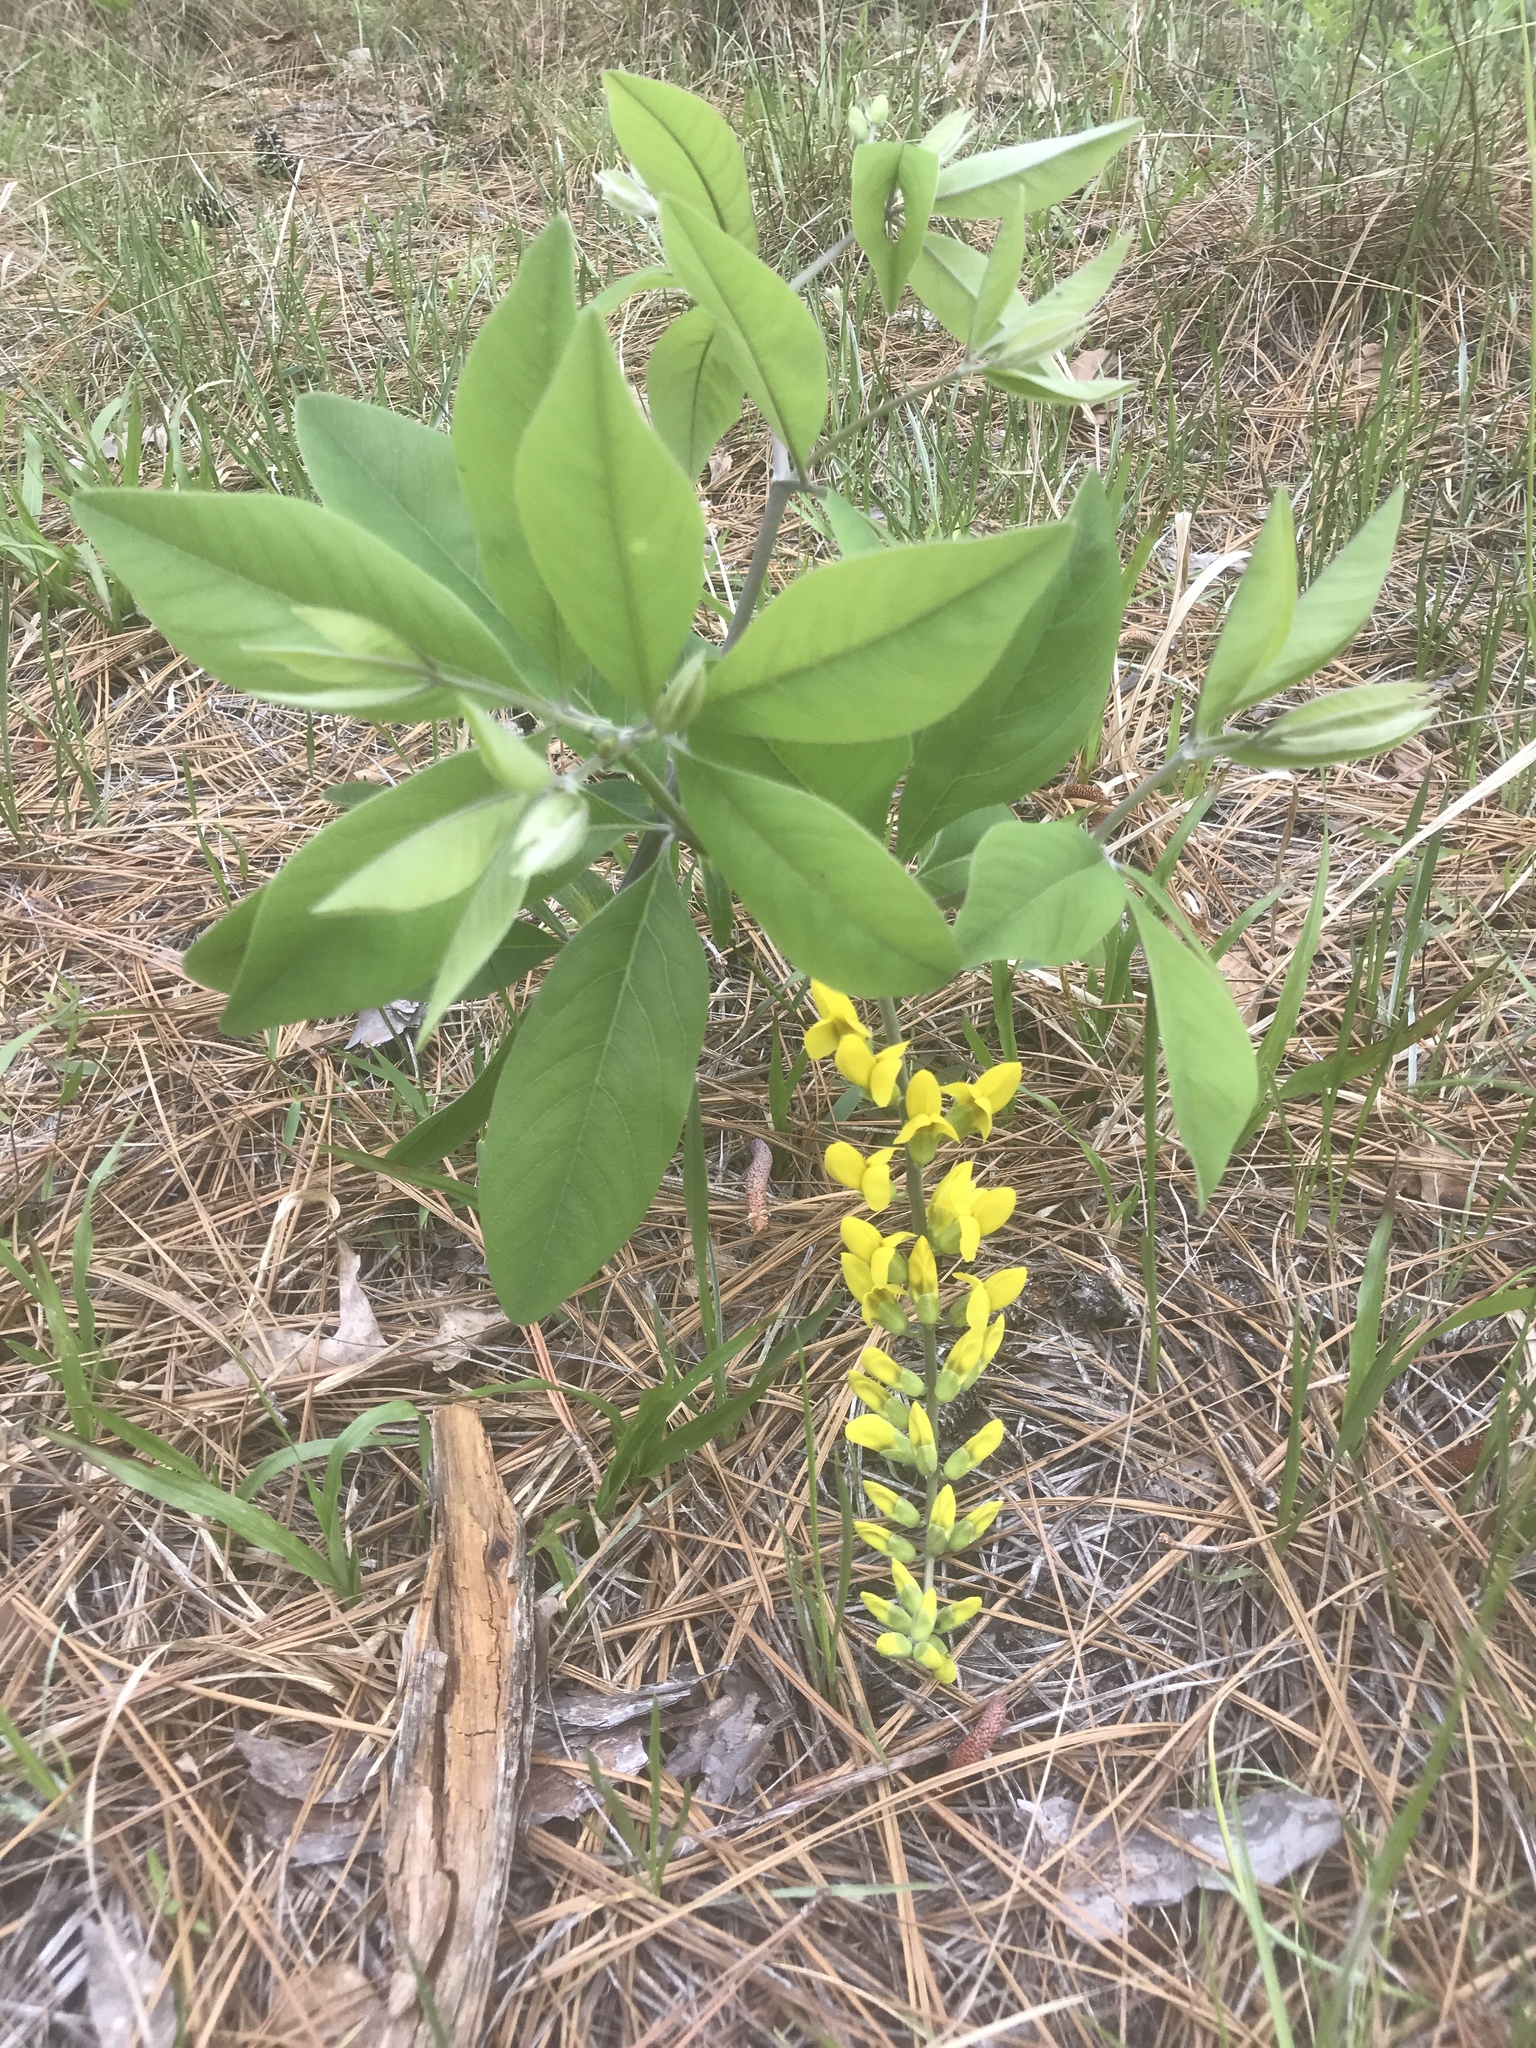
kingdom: Plantae
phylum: Tracheophyta
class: Magnoliopsida
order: Fabales
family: Fabaceae
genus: Baptisia
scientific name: Baptisia cinerea
